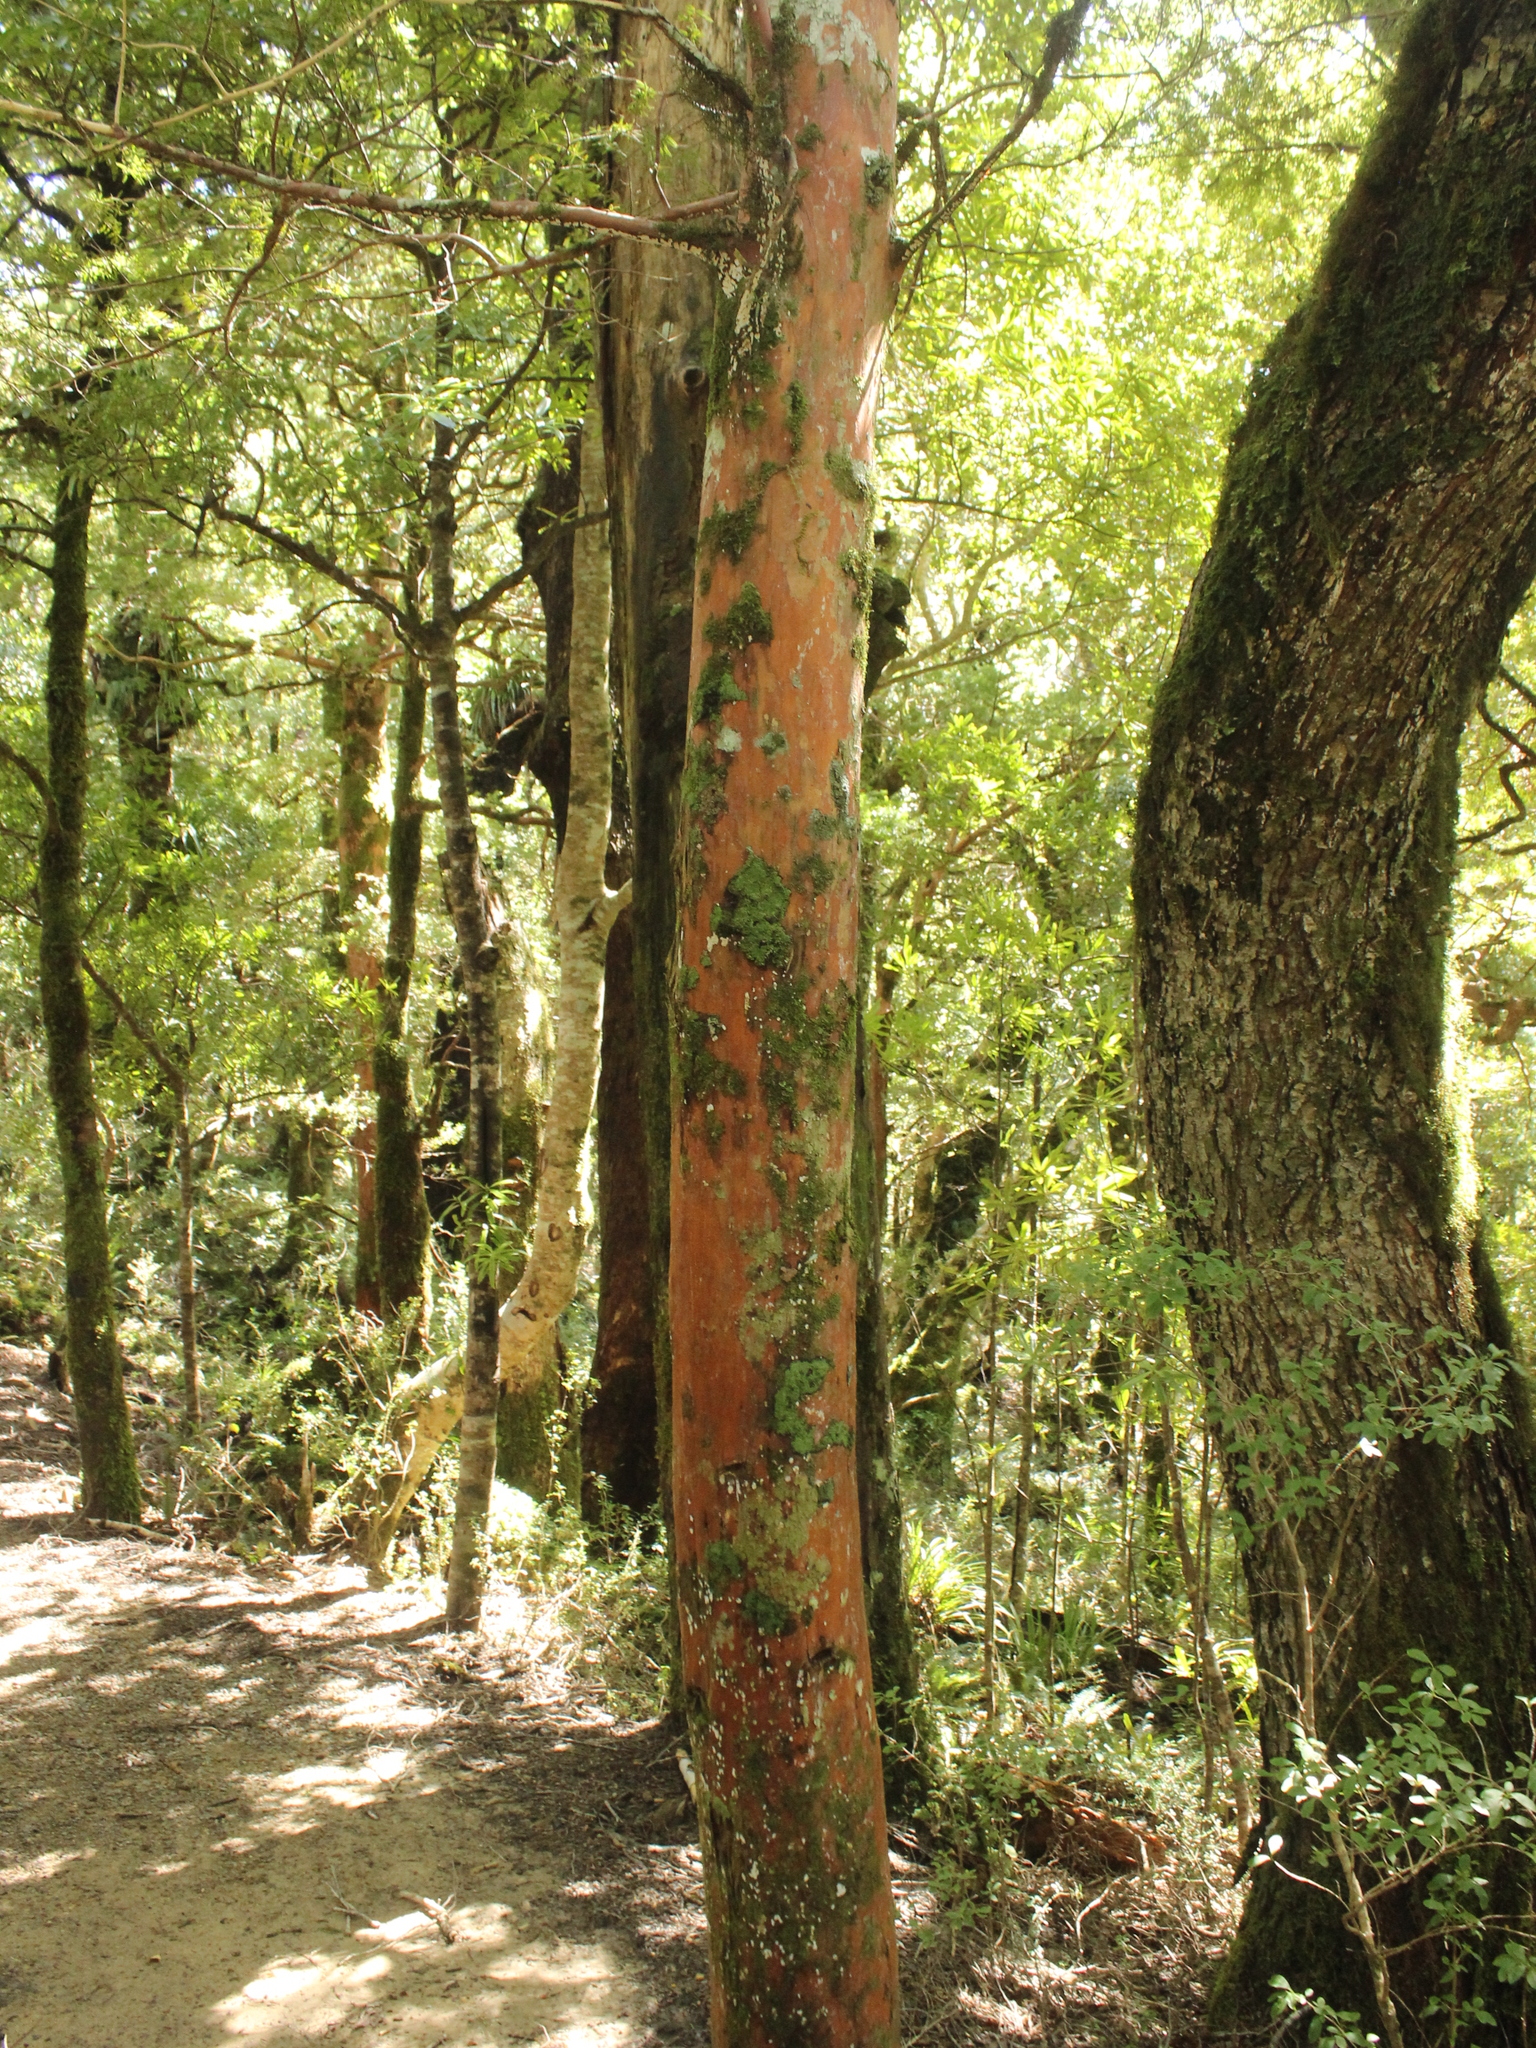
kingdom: Plantae
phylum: Tracheophyta
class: Pinopsida
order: Pinales
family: Podocarpaceae
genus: Podocarpus
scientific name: Podocarpus laetus
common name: Hall's totara
